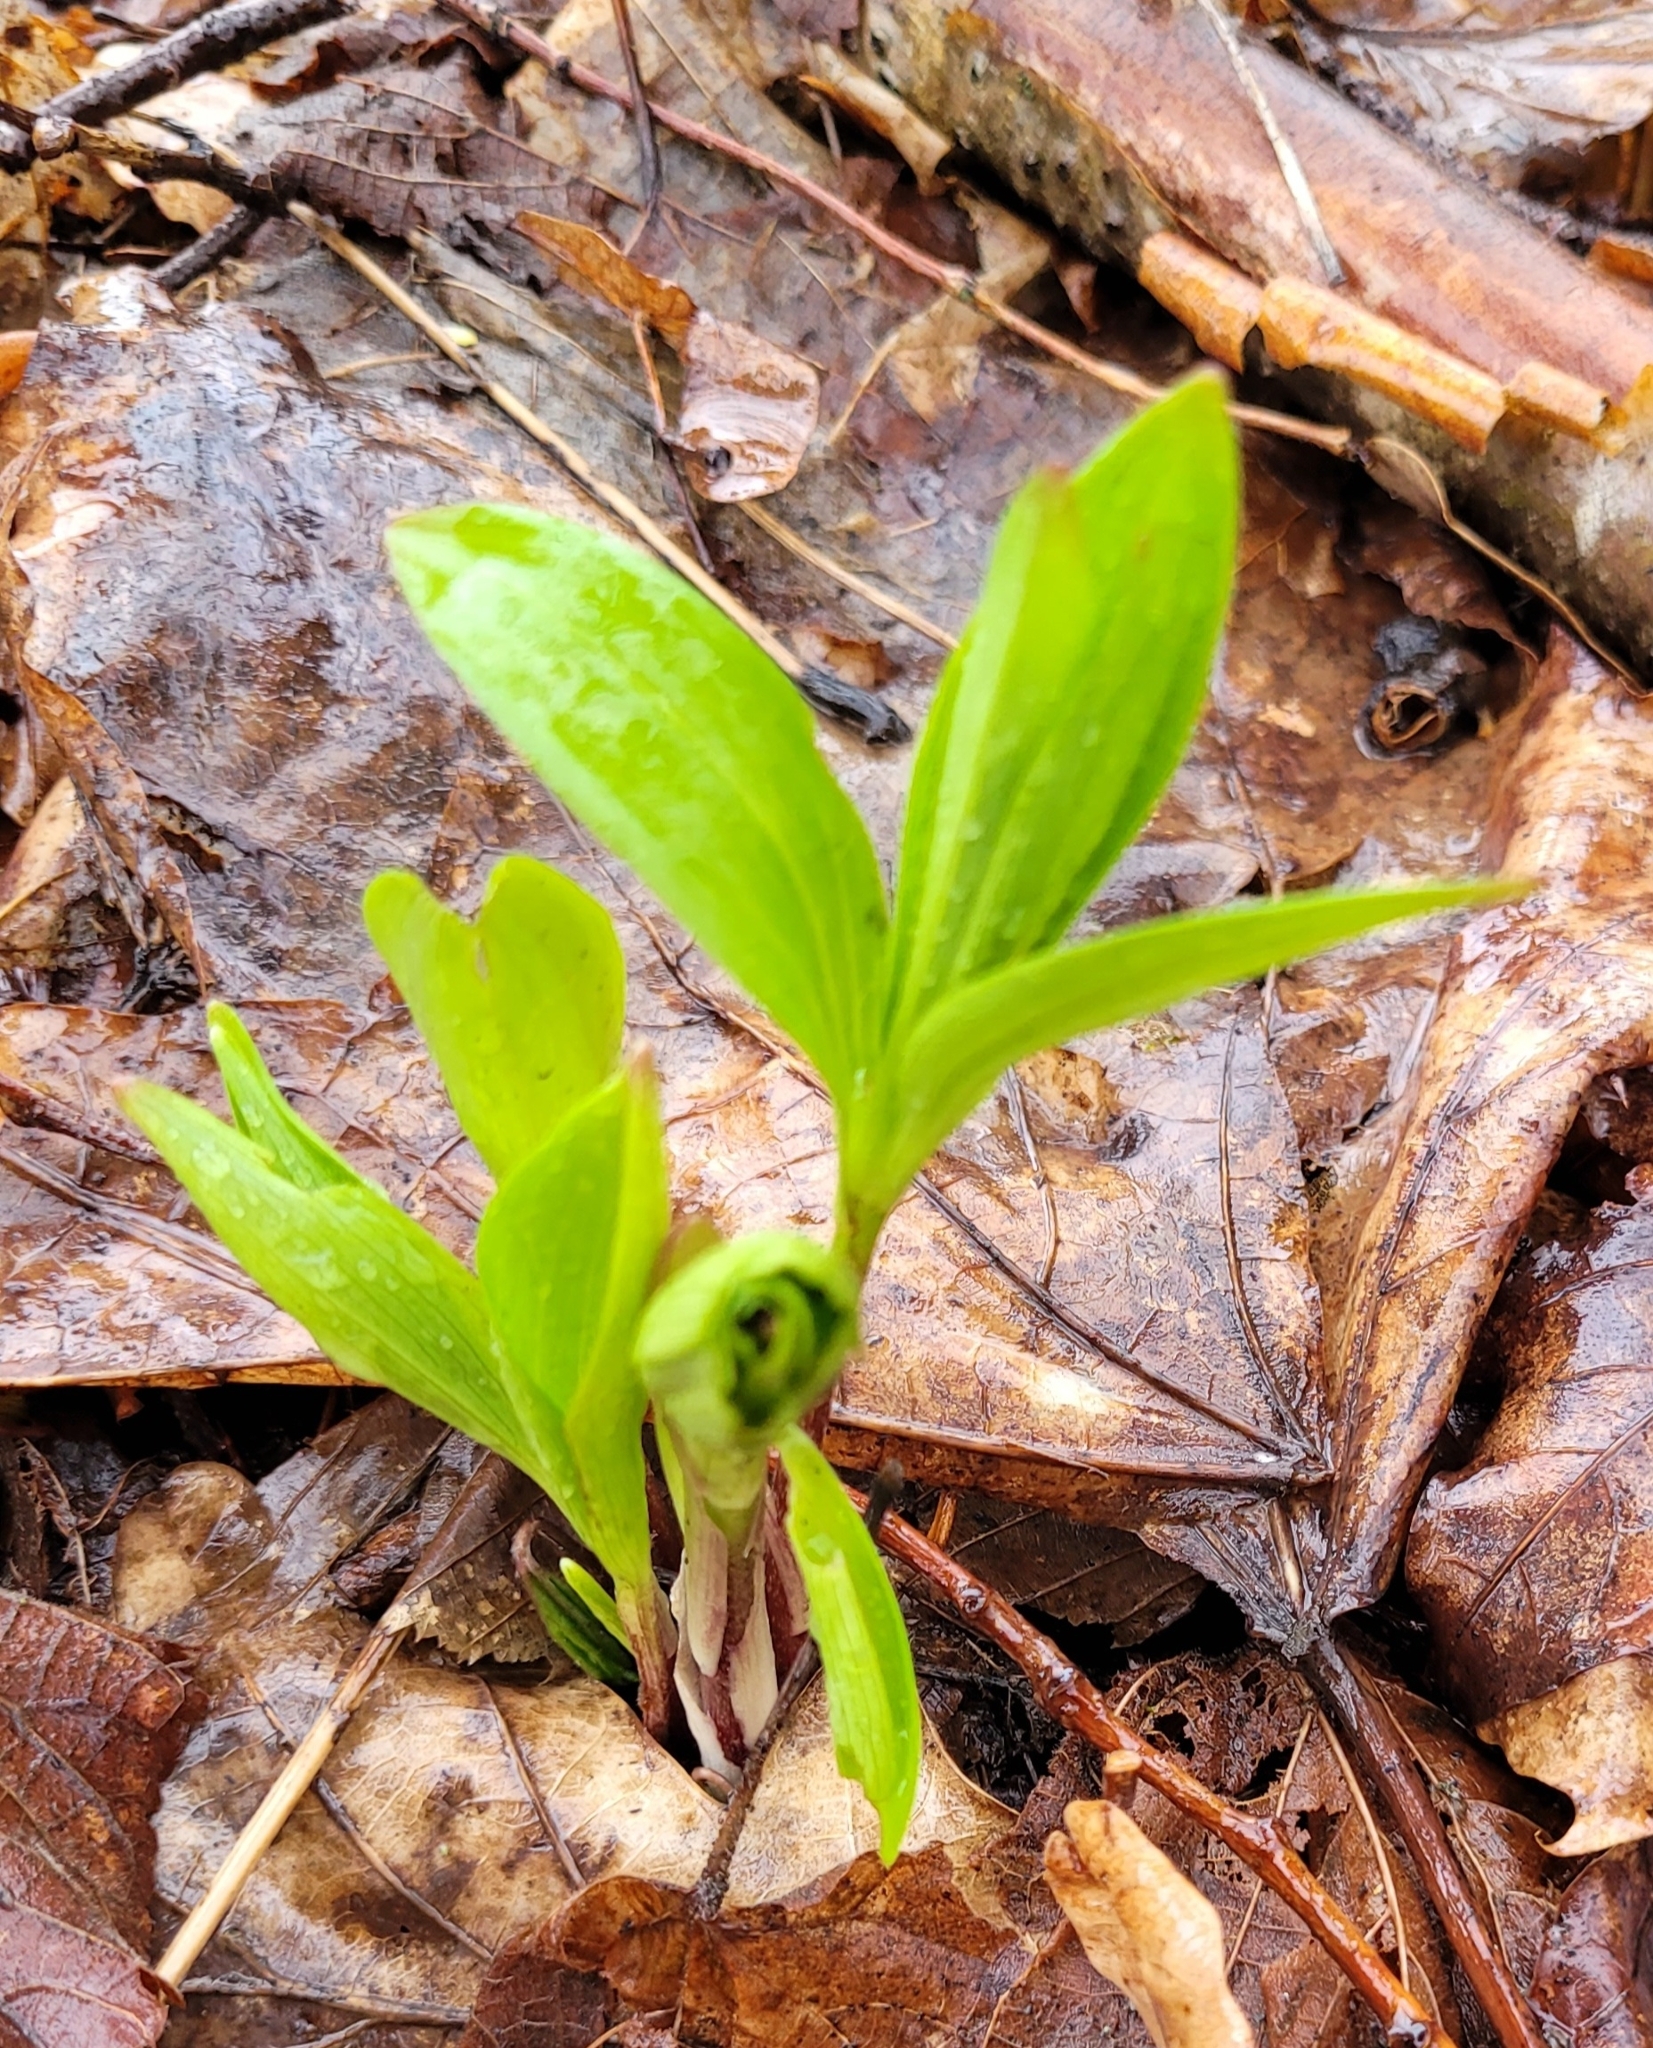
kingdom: Plantae
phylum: Tracheophyta
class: Liliopsida
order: Liliales
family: Liliaceae
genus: Lilium
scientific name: Lilium martagon
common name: Martagon lily
